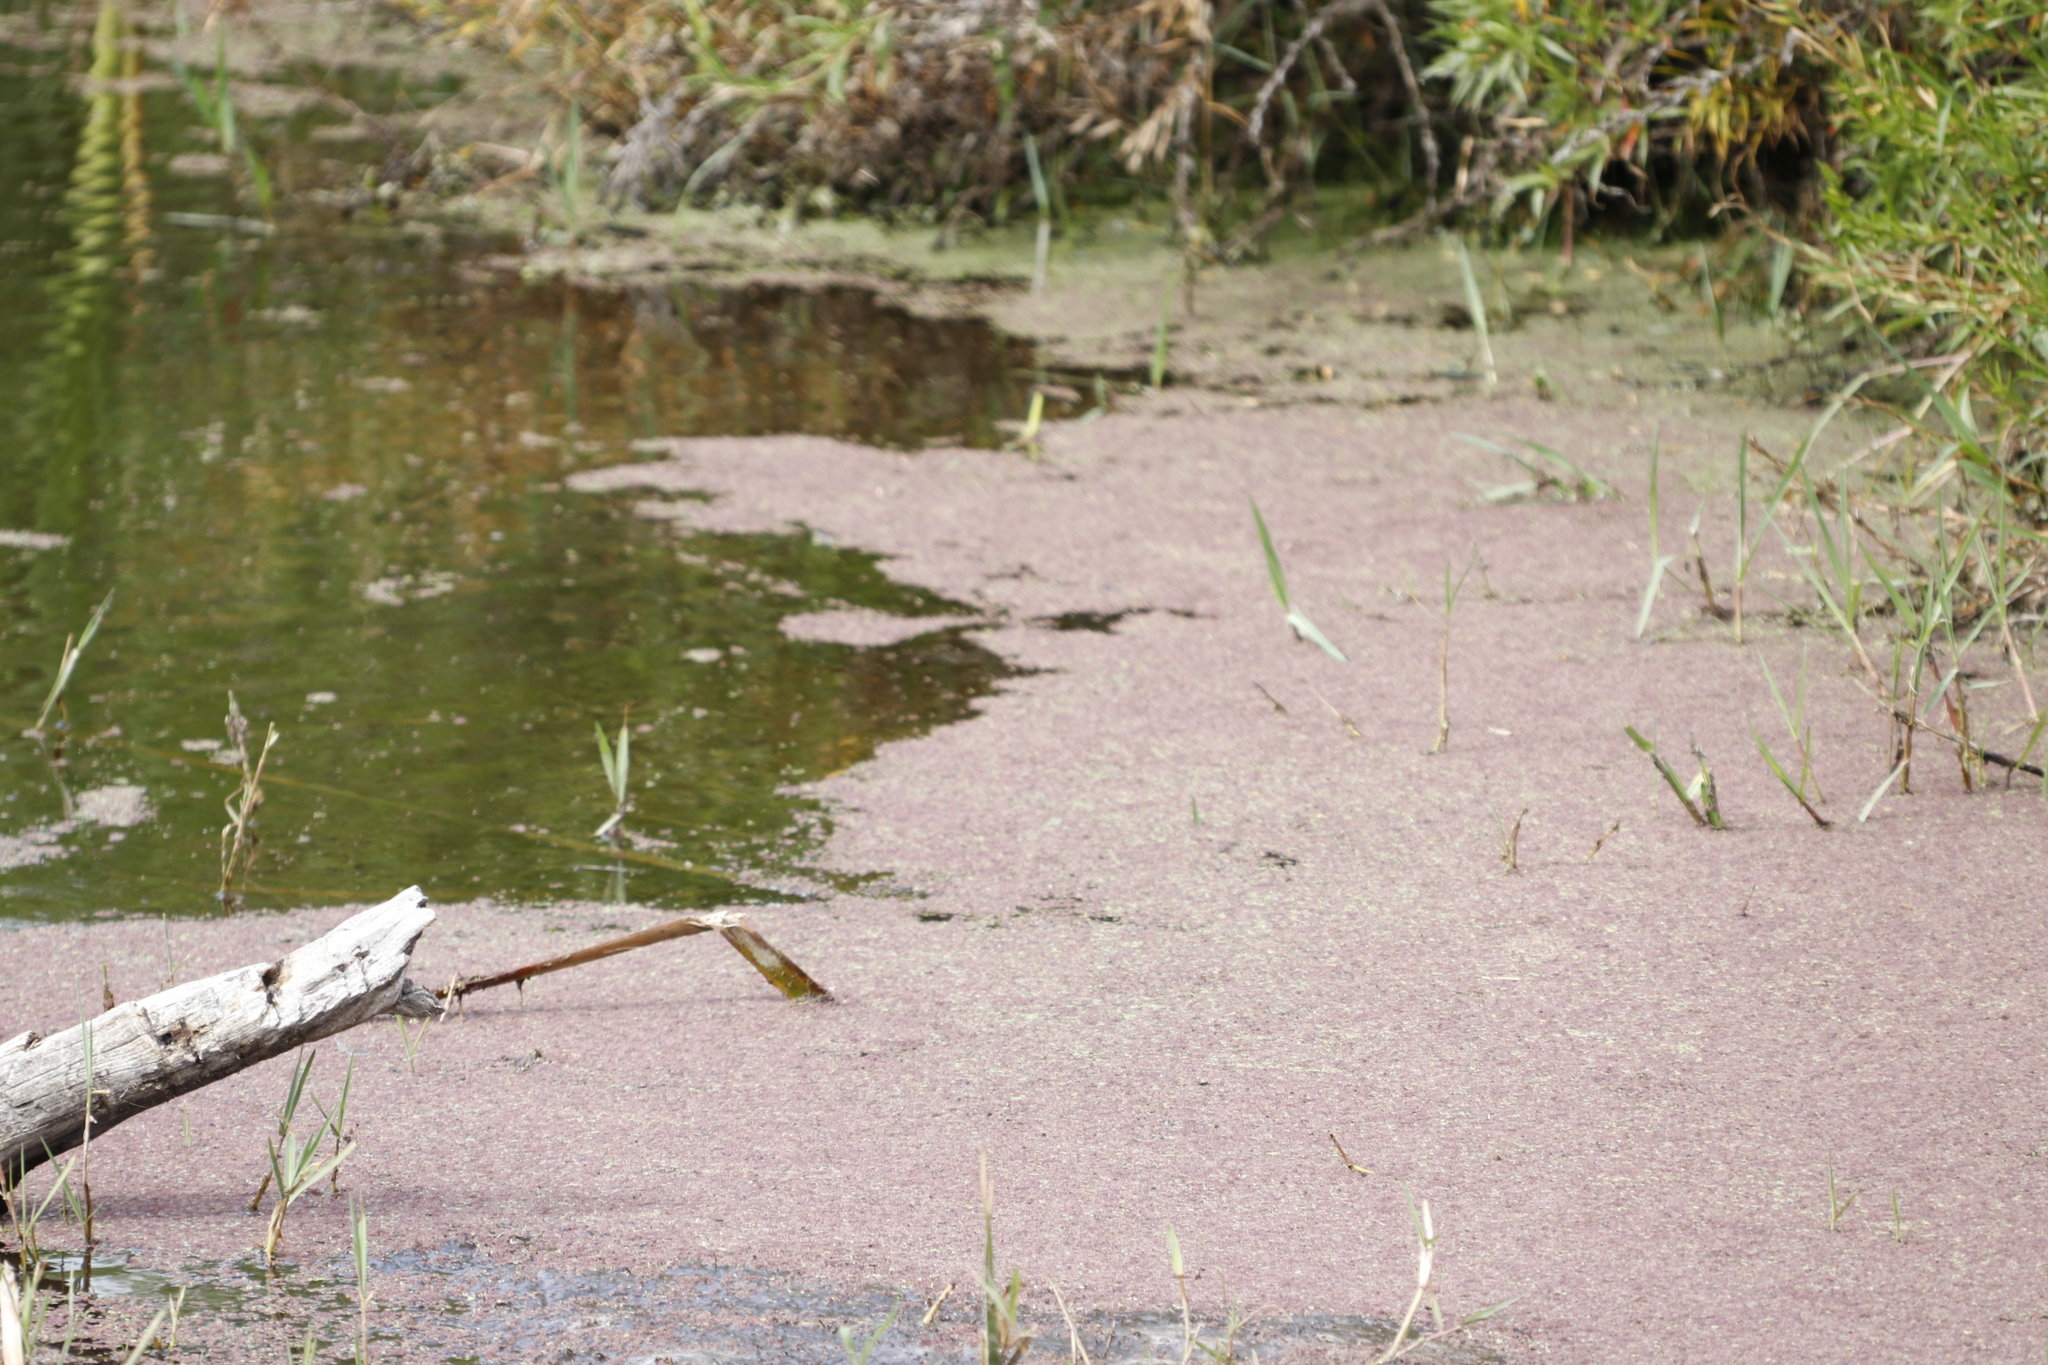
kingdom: Plantae
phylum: Tracheophyta
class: Polypodiopsida
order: Salviniales
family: Salviniaceae
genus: Azolla
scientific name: Azolla filiculoides
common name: Water fern
